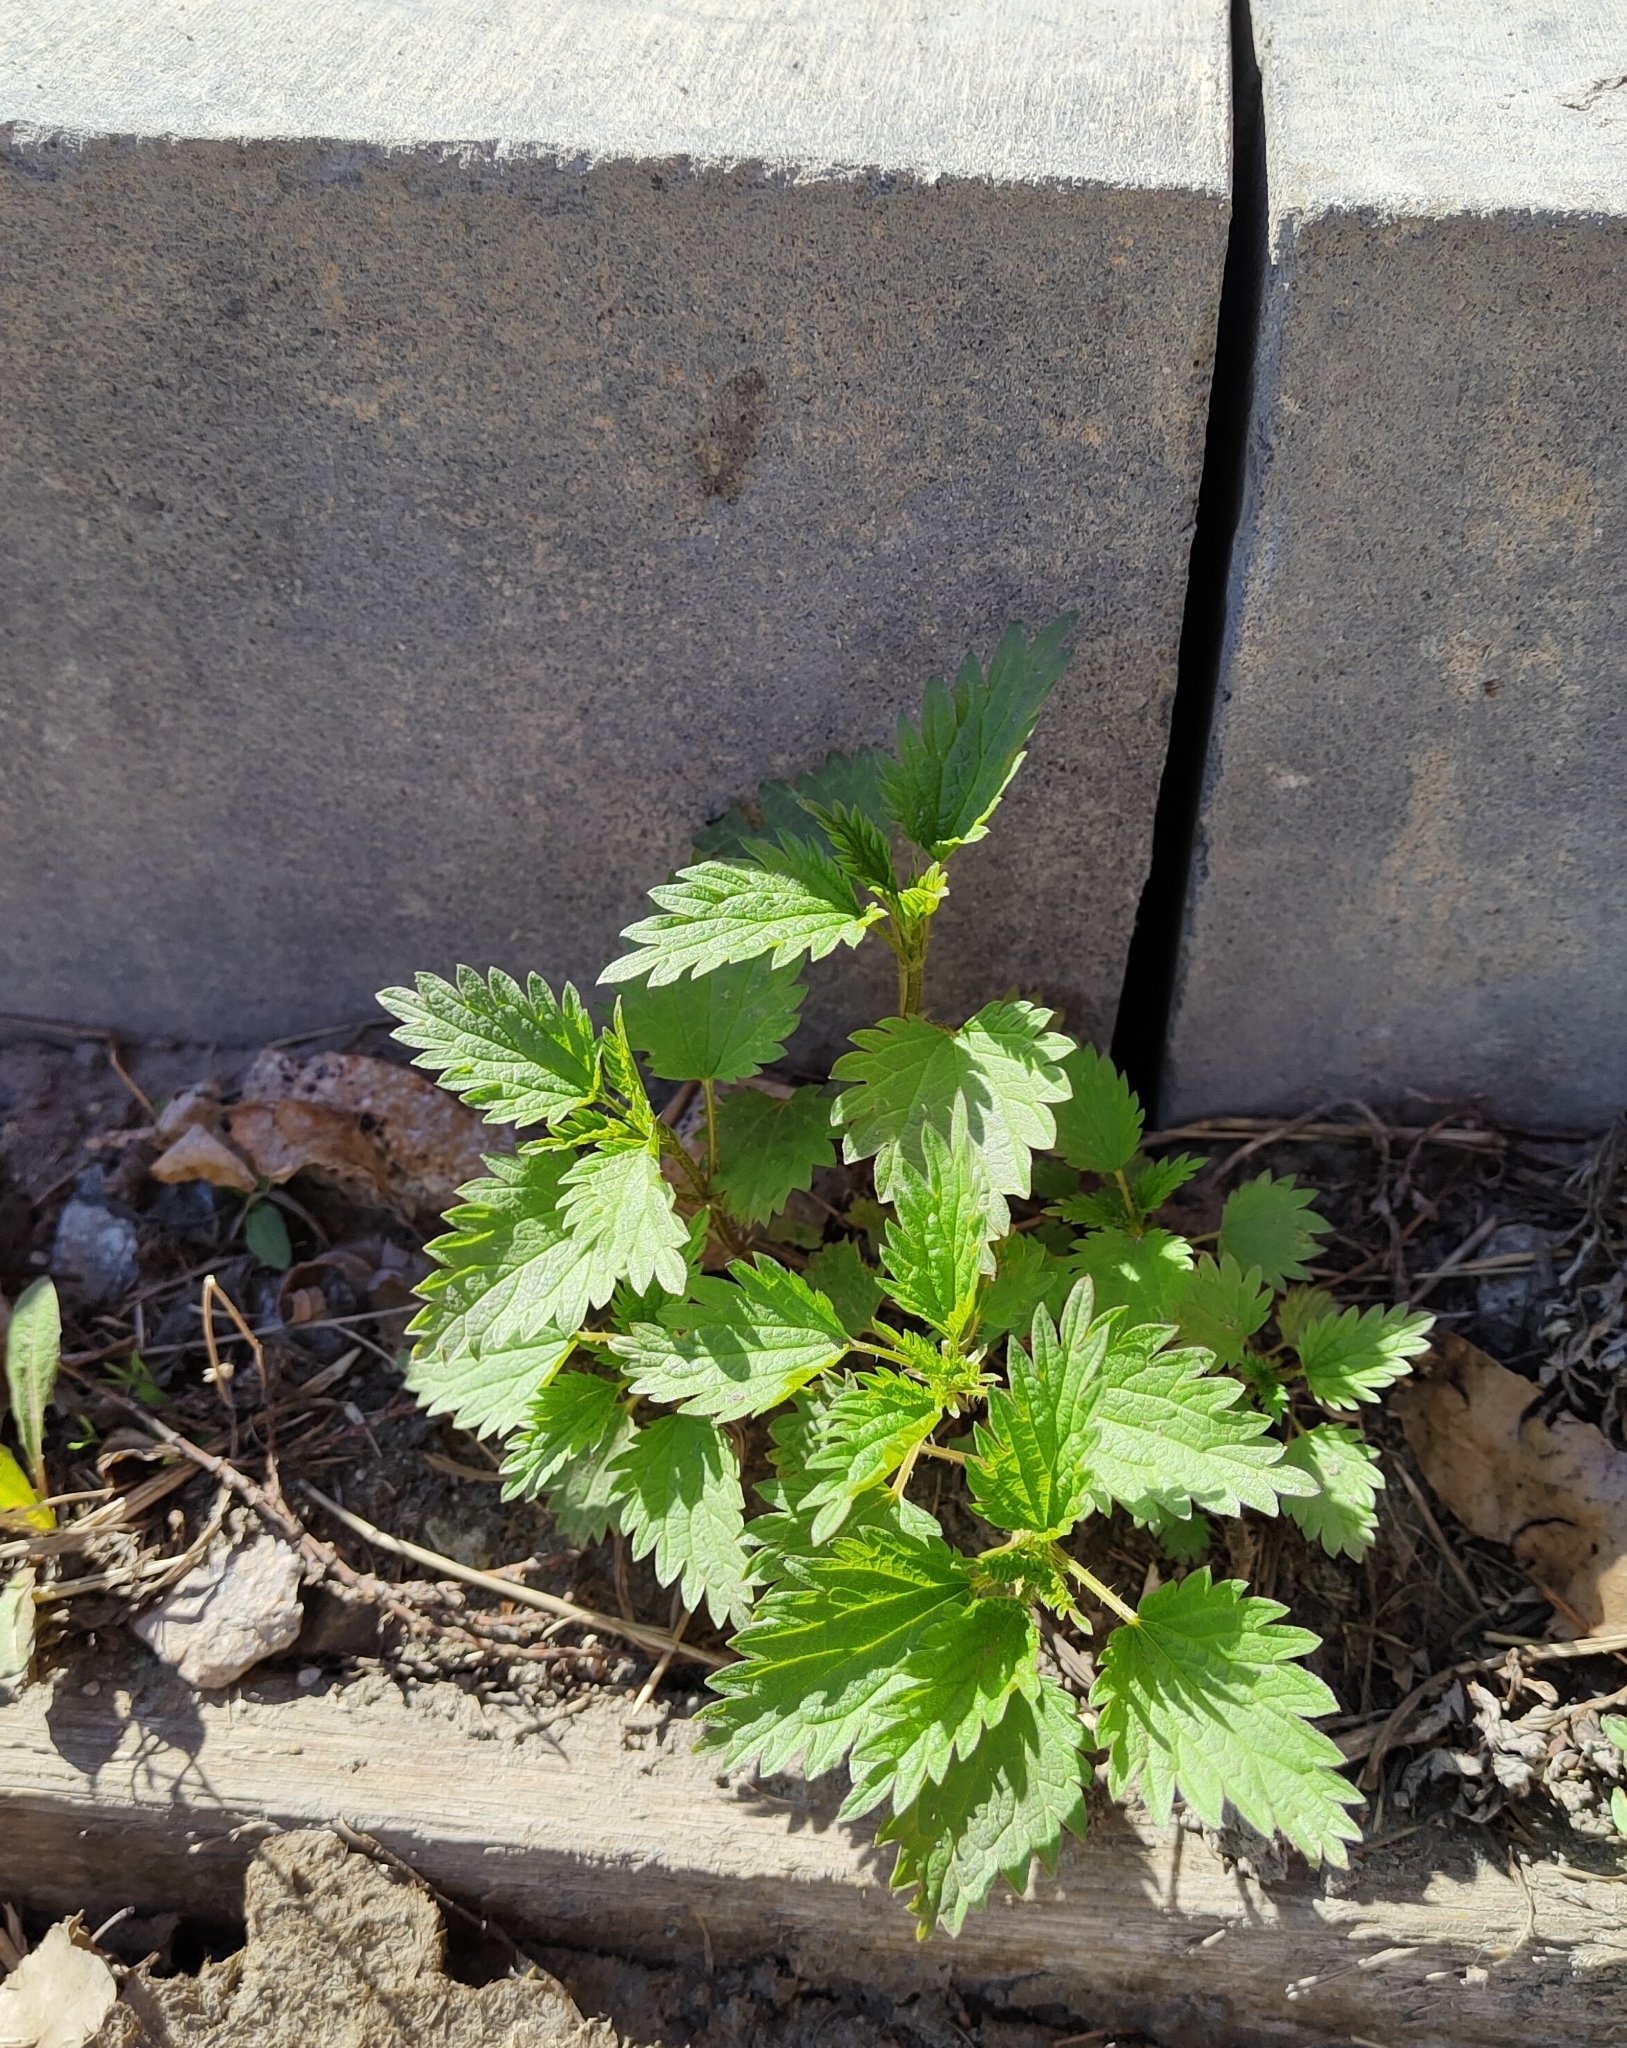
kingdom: Plantae
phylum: Tracheophyta
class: Magnoliopsida
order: Rosales
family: Urticaceae
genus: Urtica
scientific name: Urtica dioica
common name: Common nettle
